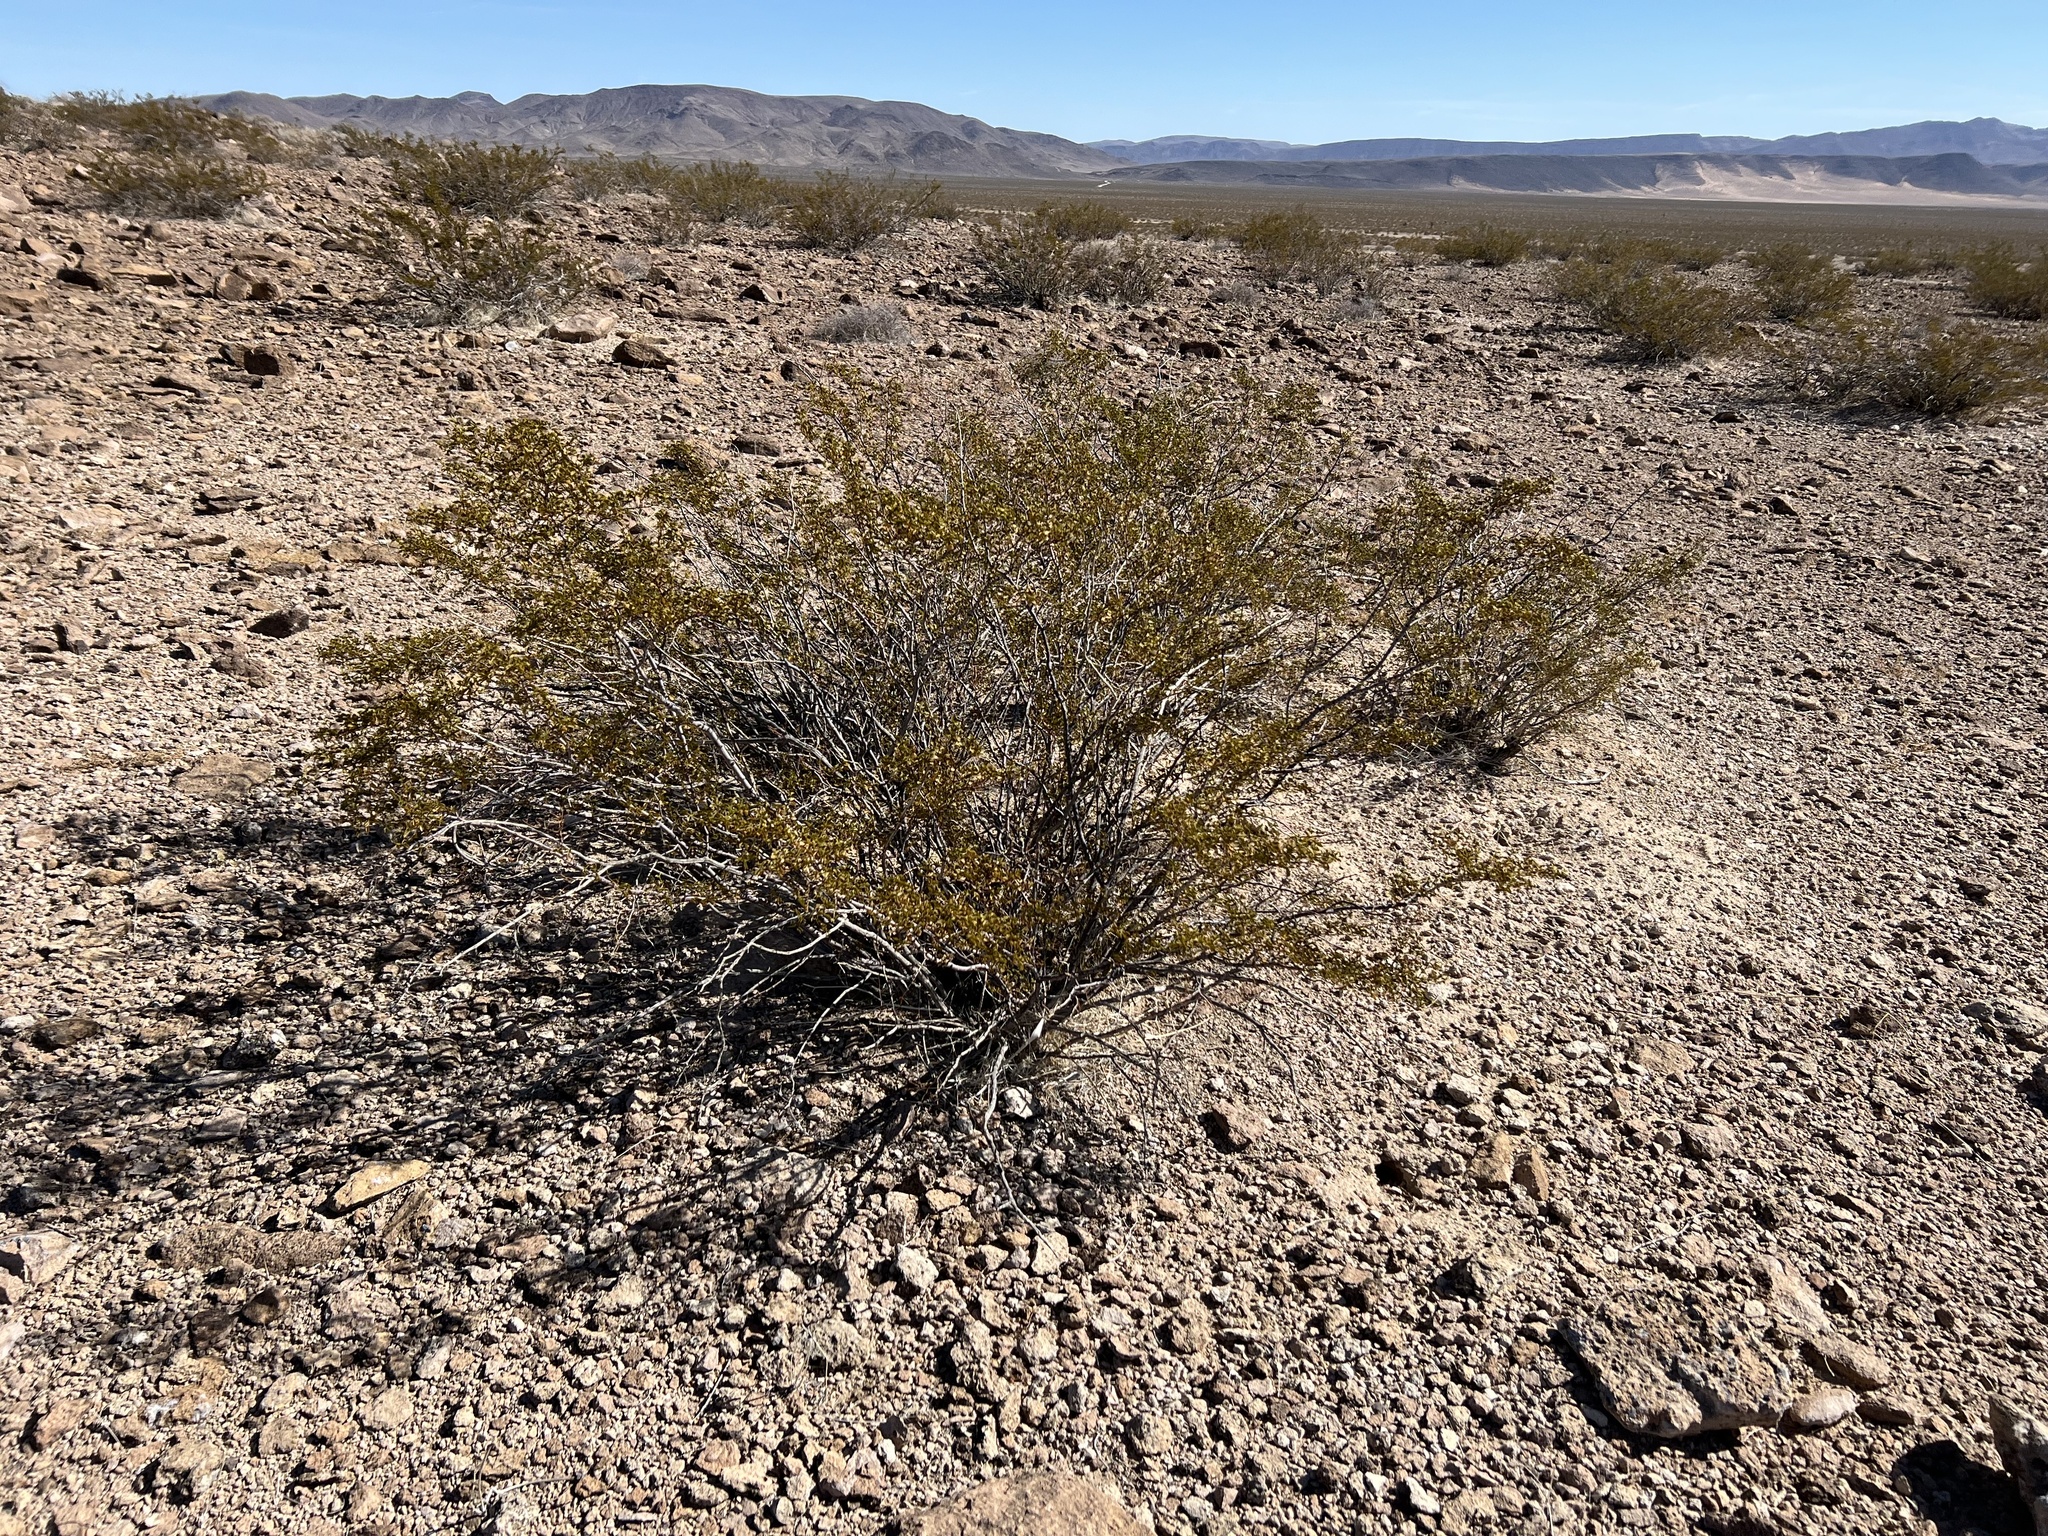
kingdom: Plantae
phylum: Tracheophyta
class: Magnoliopsida
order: Zygophyllales
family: Zygophyllaceae
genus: Larrea
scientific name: Larrea tridentata
